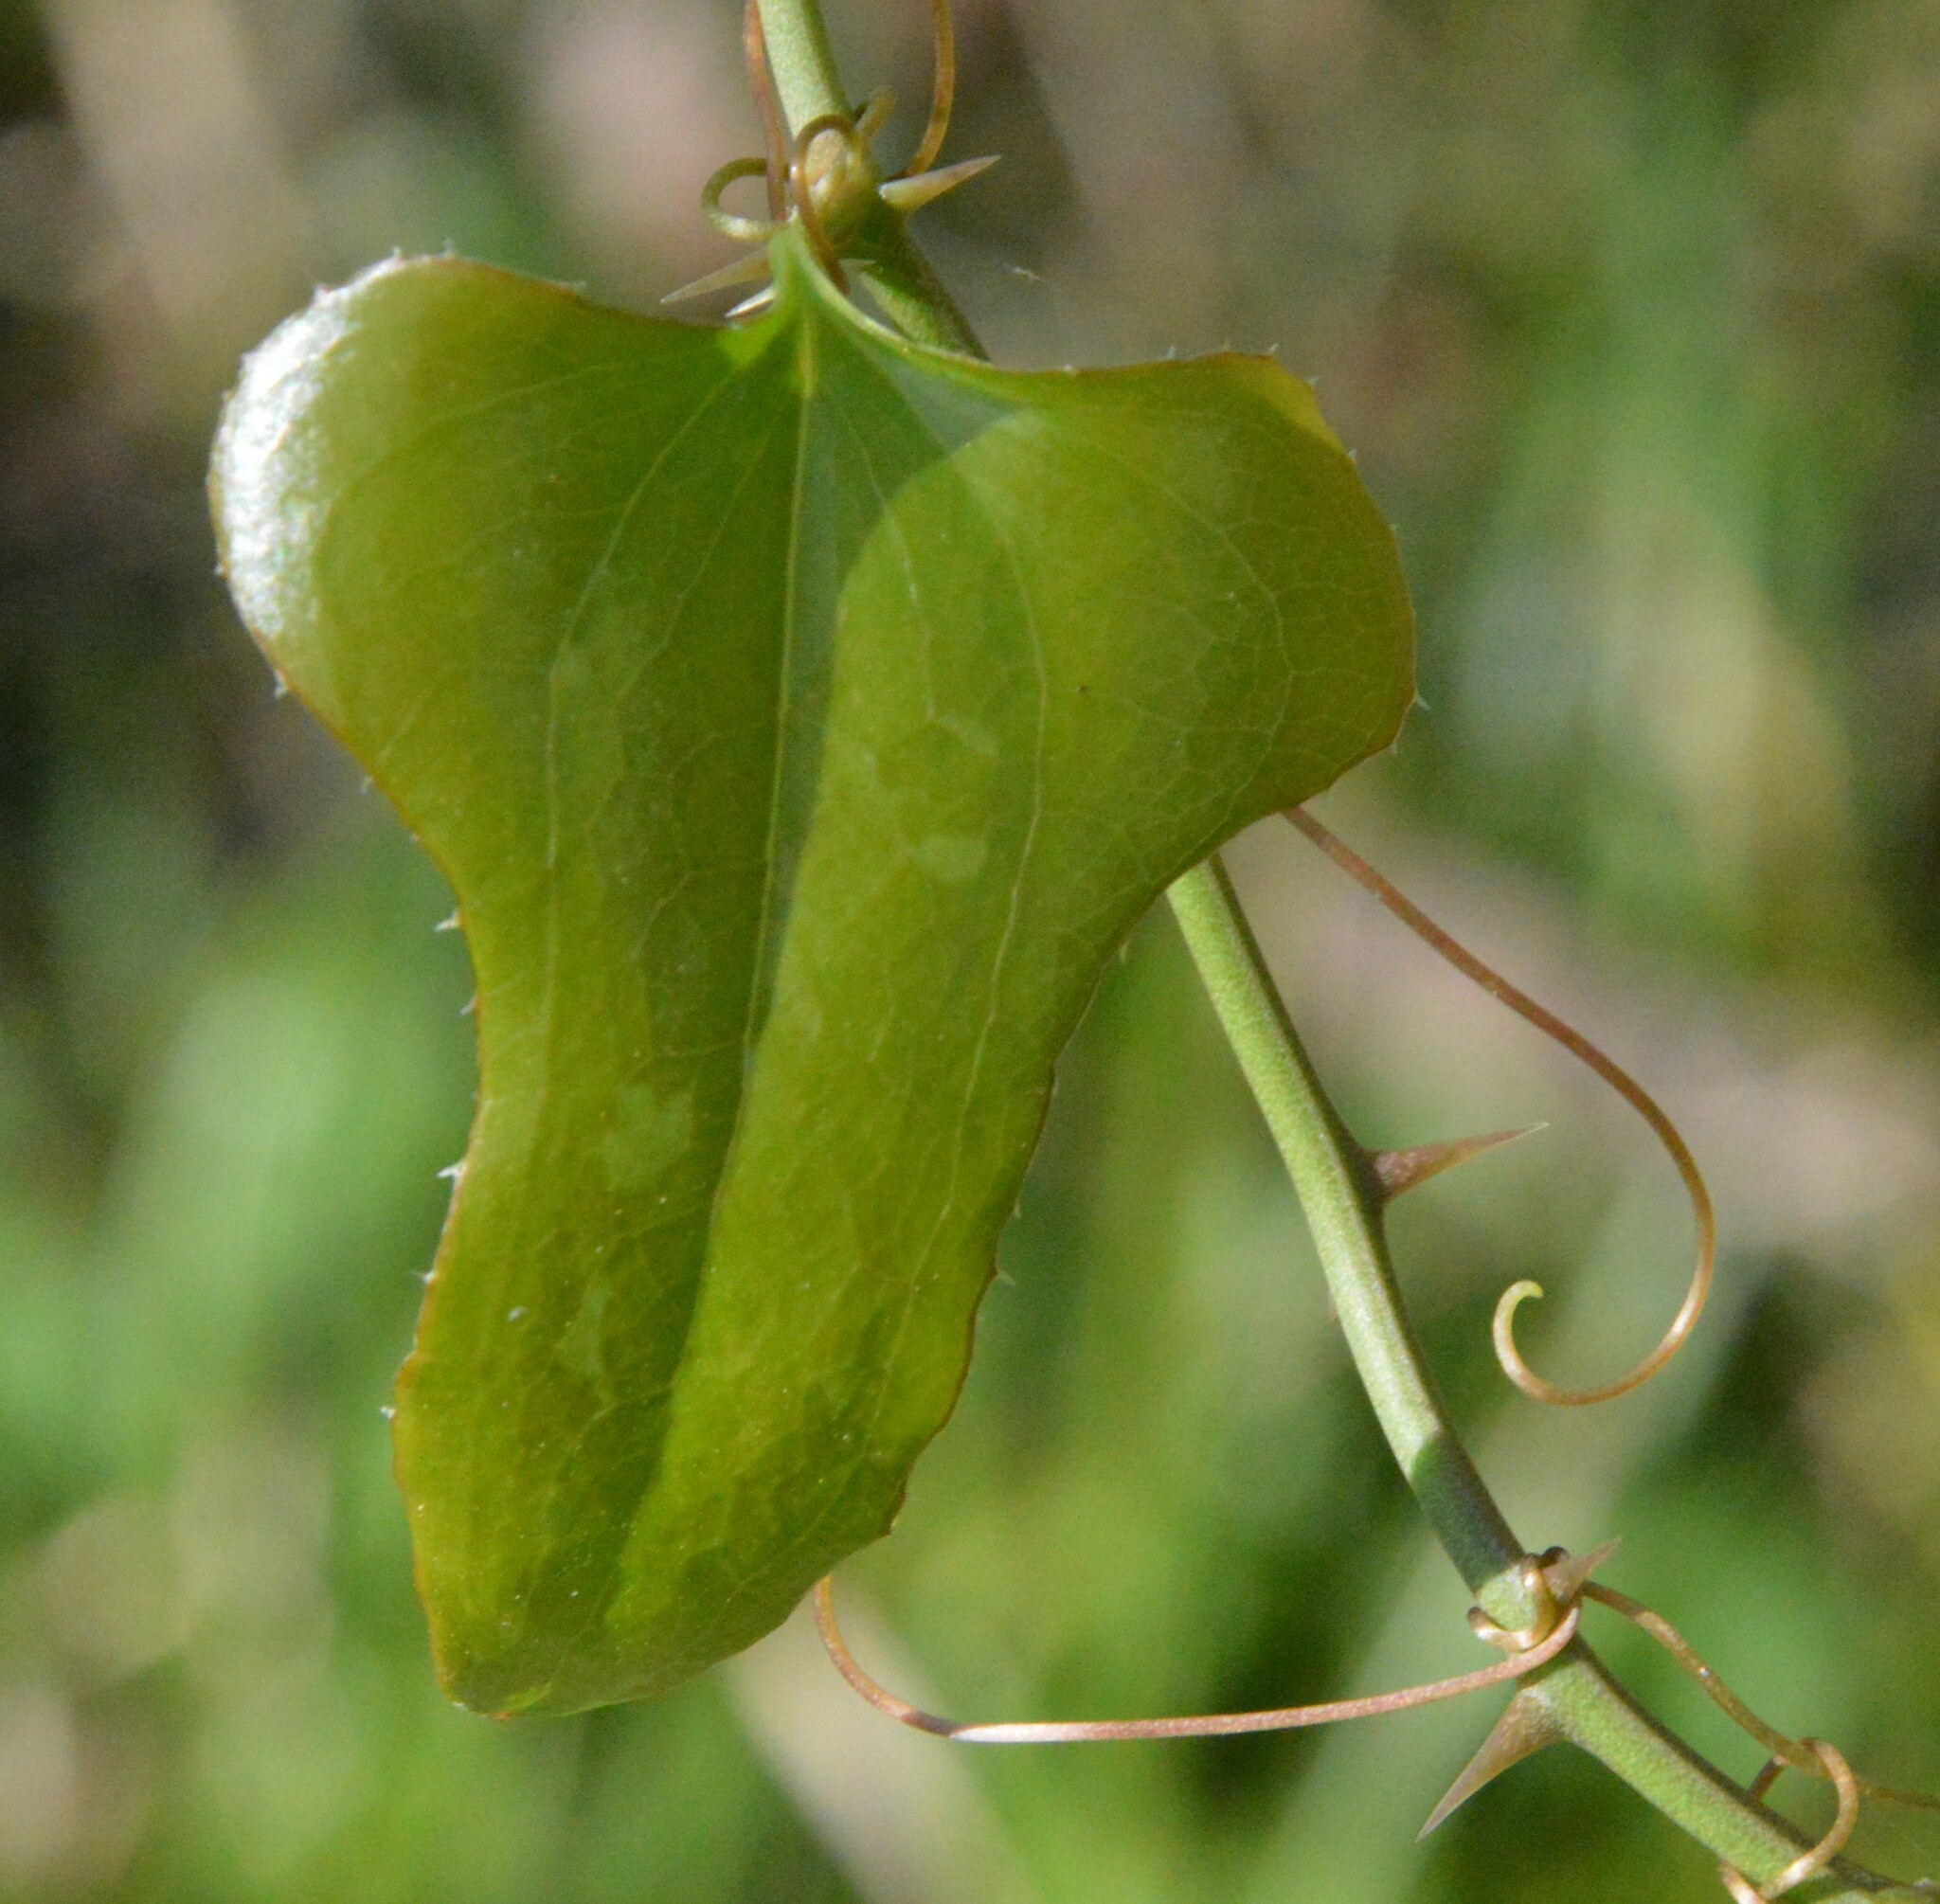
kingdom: Plantae
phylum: Tracheophyta
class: Liliopsida
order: Liliales
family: Smilacaceae
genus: Smilax
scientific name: Smilax bona-nox
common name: Catbrier
